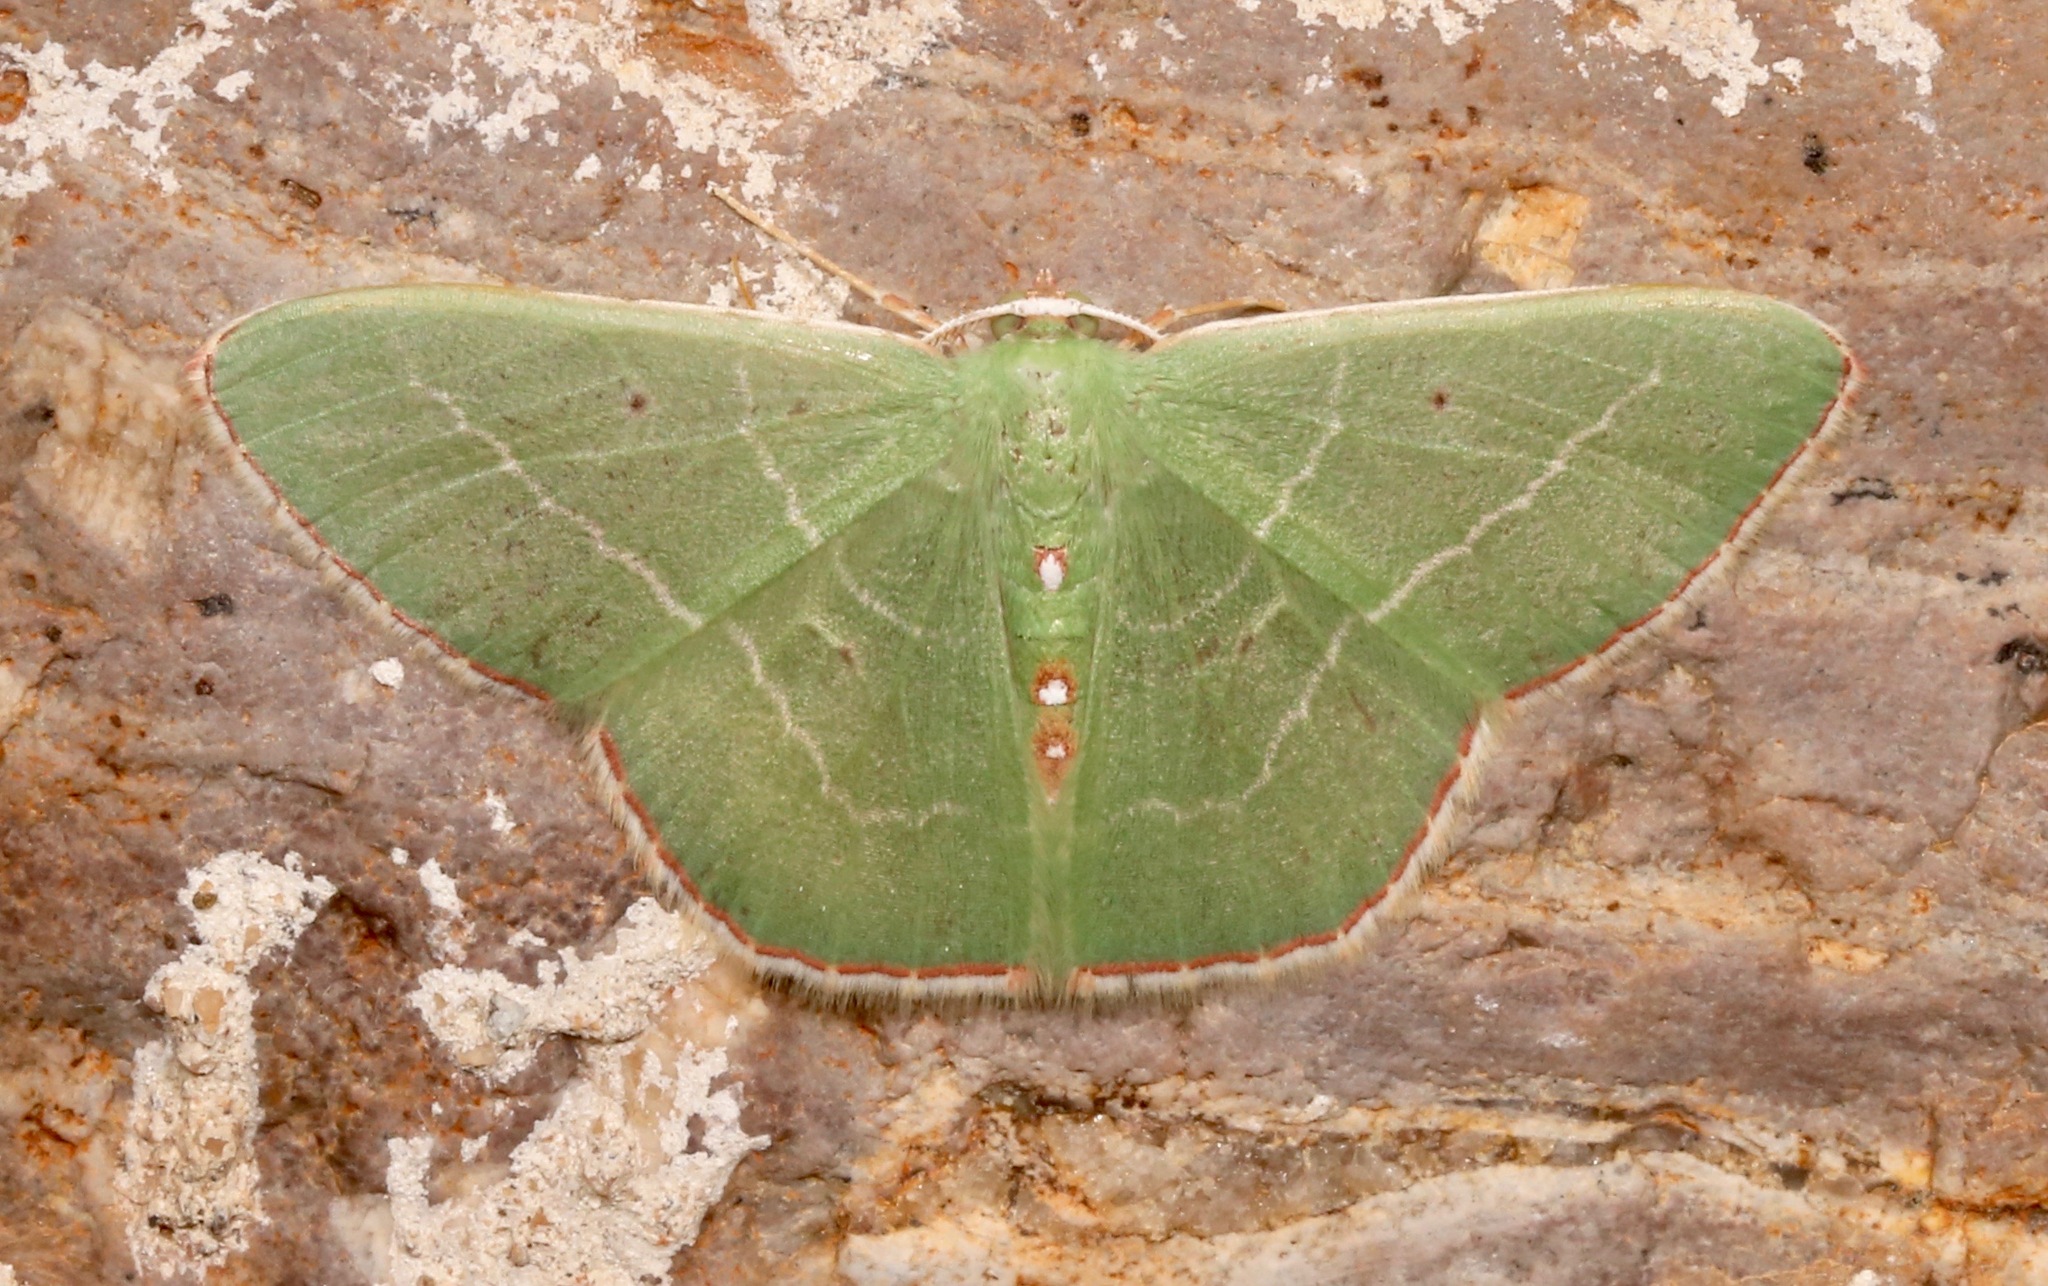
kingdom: Animalia
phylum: Arthropoda
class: Insecta
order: Lepidoptera
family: Geometridae
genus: Nemoria
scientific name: Nemoria zelotes
